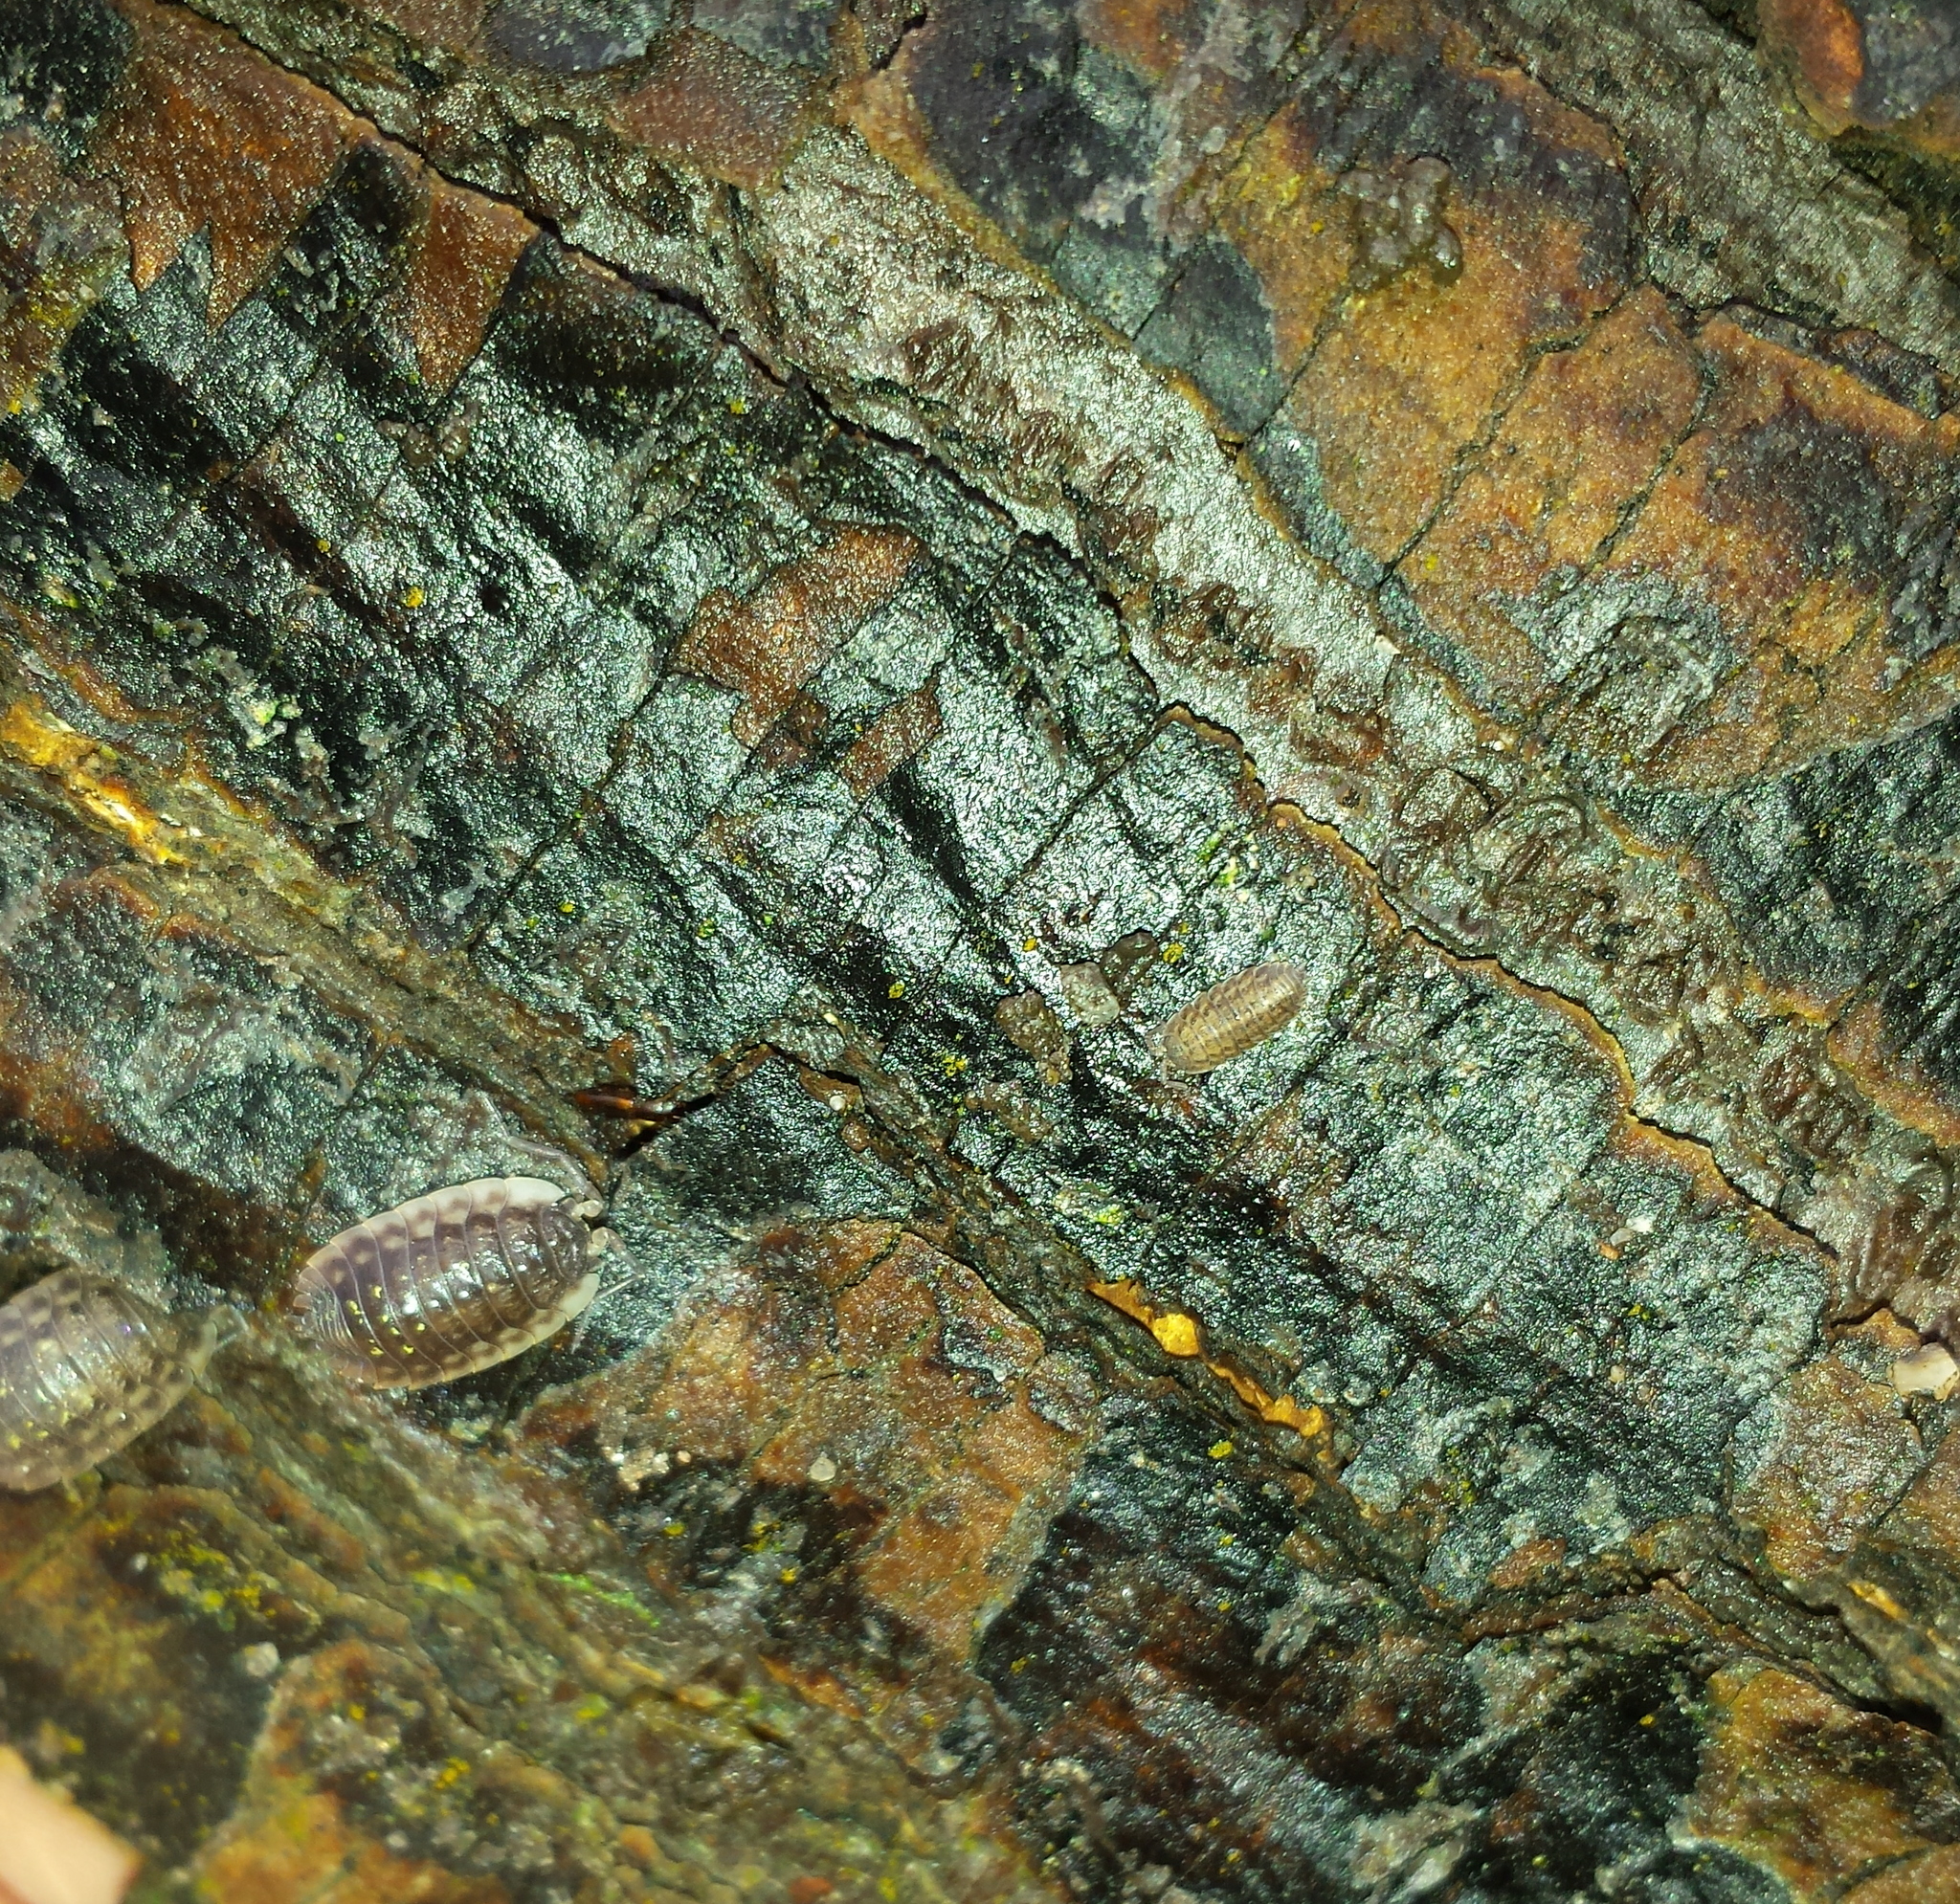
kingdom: Animalia
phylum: Arthropoda
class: Malacostraca
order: Isopoda
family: Trachelipodidae
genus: Trachelipus
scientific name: Trachelipus rathkii
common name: Isopod
